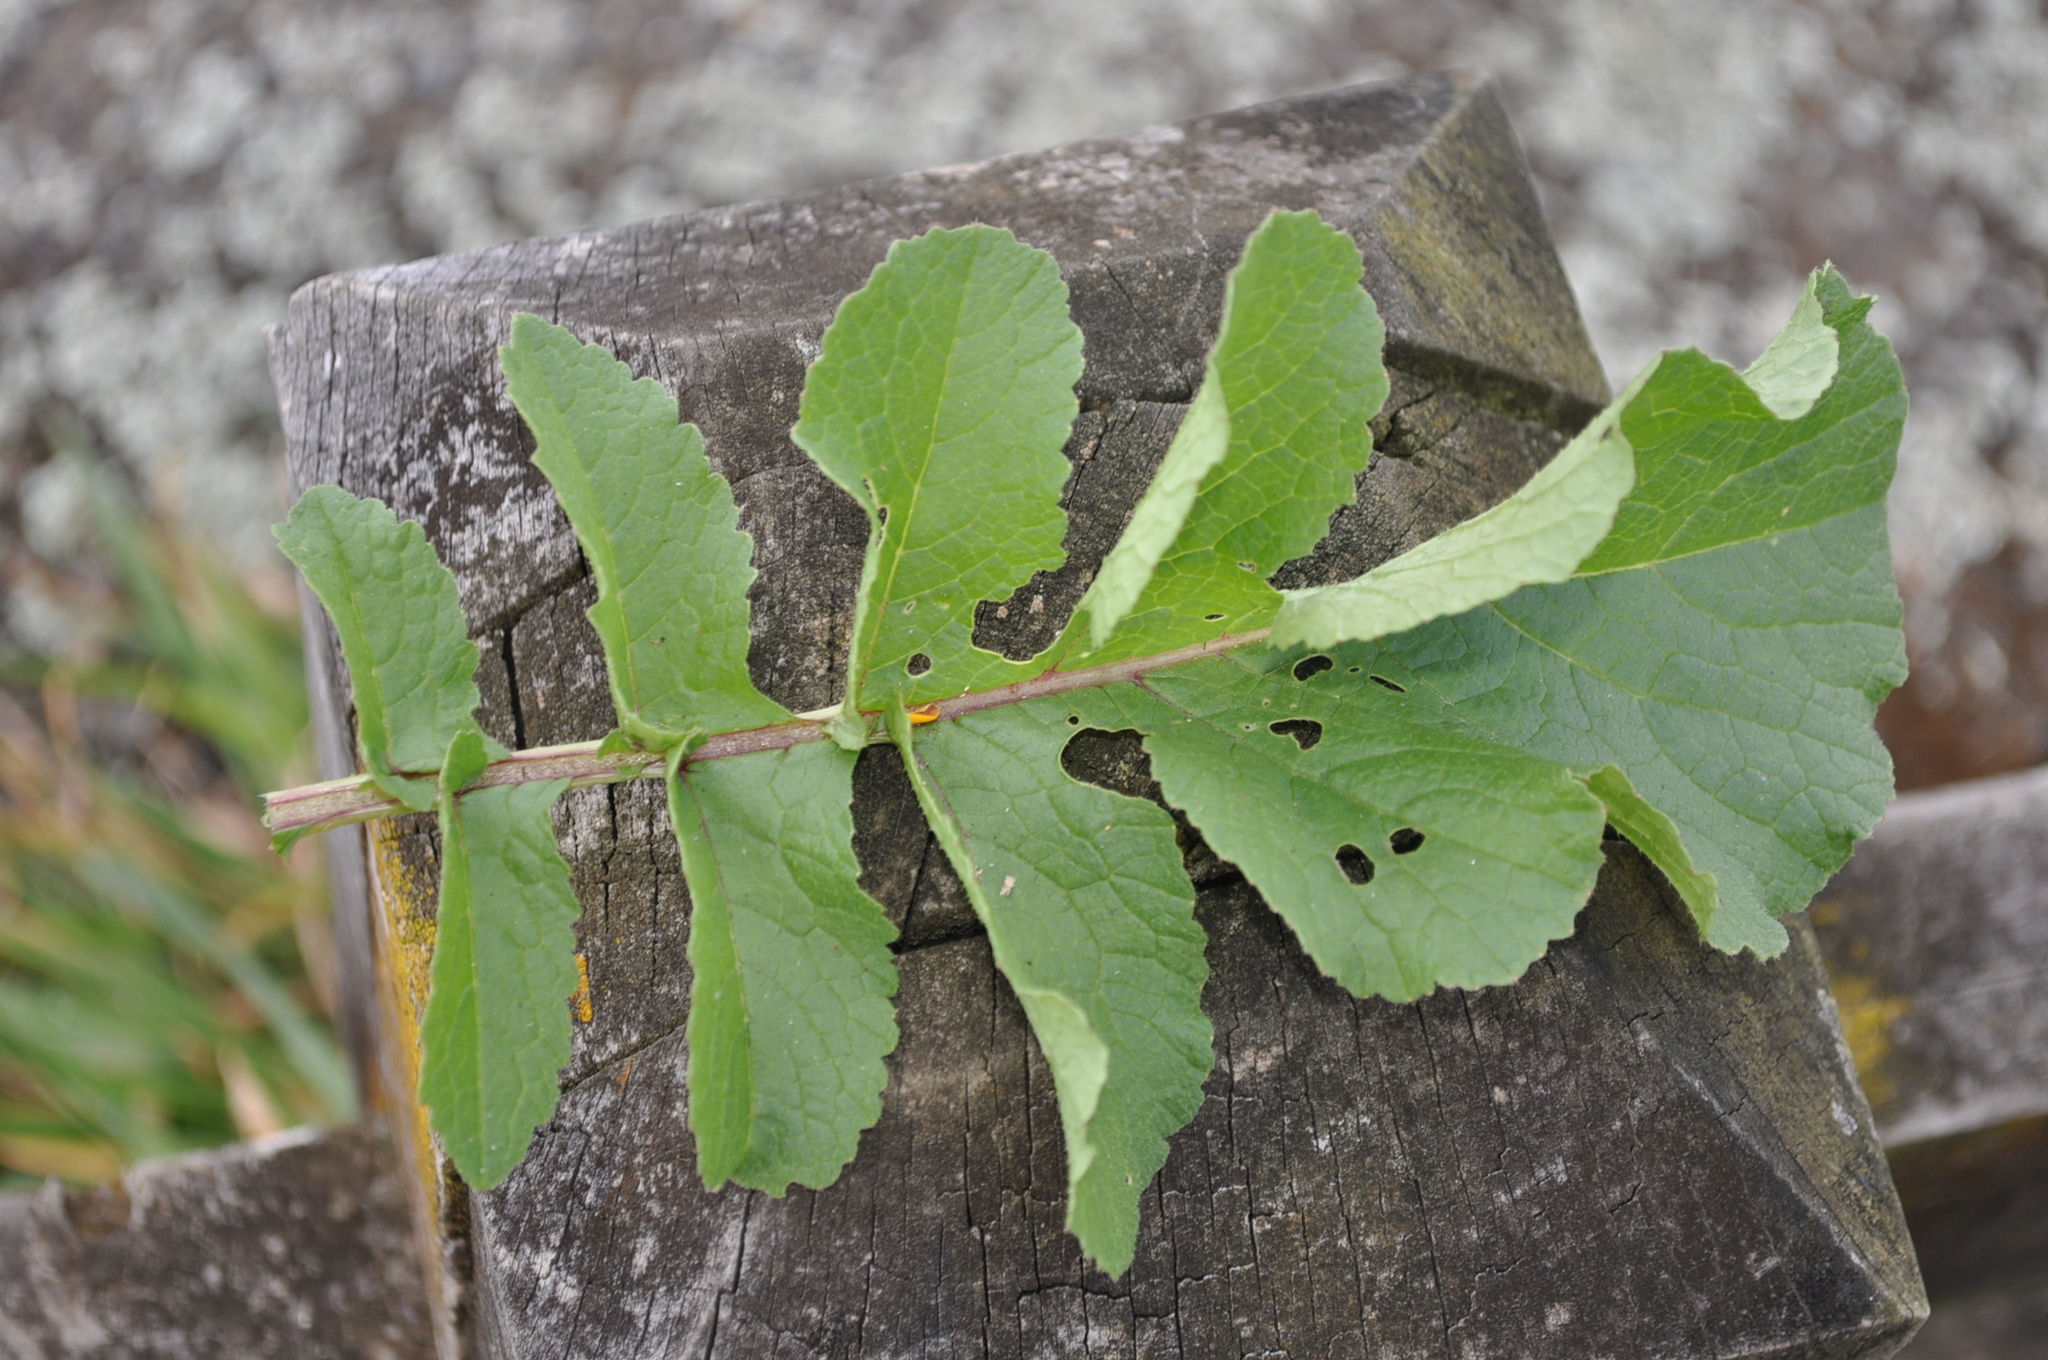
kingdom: Plantae
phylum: Tracheophyta
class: Magnoliopsida
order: Brassicales
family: Brassicaceae
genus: Raphanus
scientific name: Raphanus raphanistrum
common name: Wild radish
